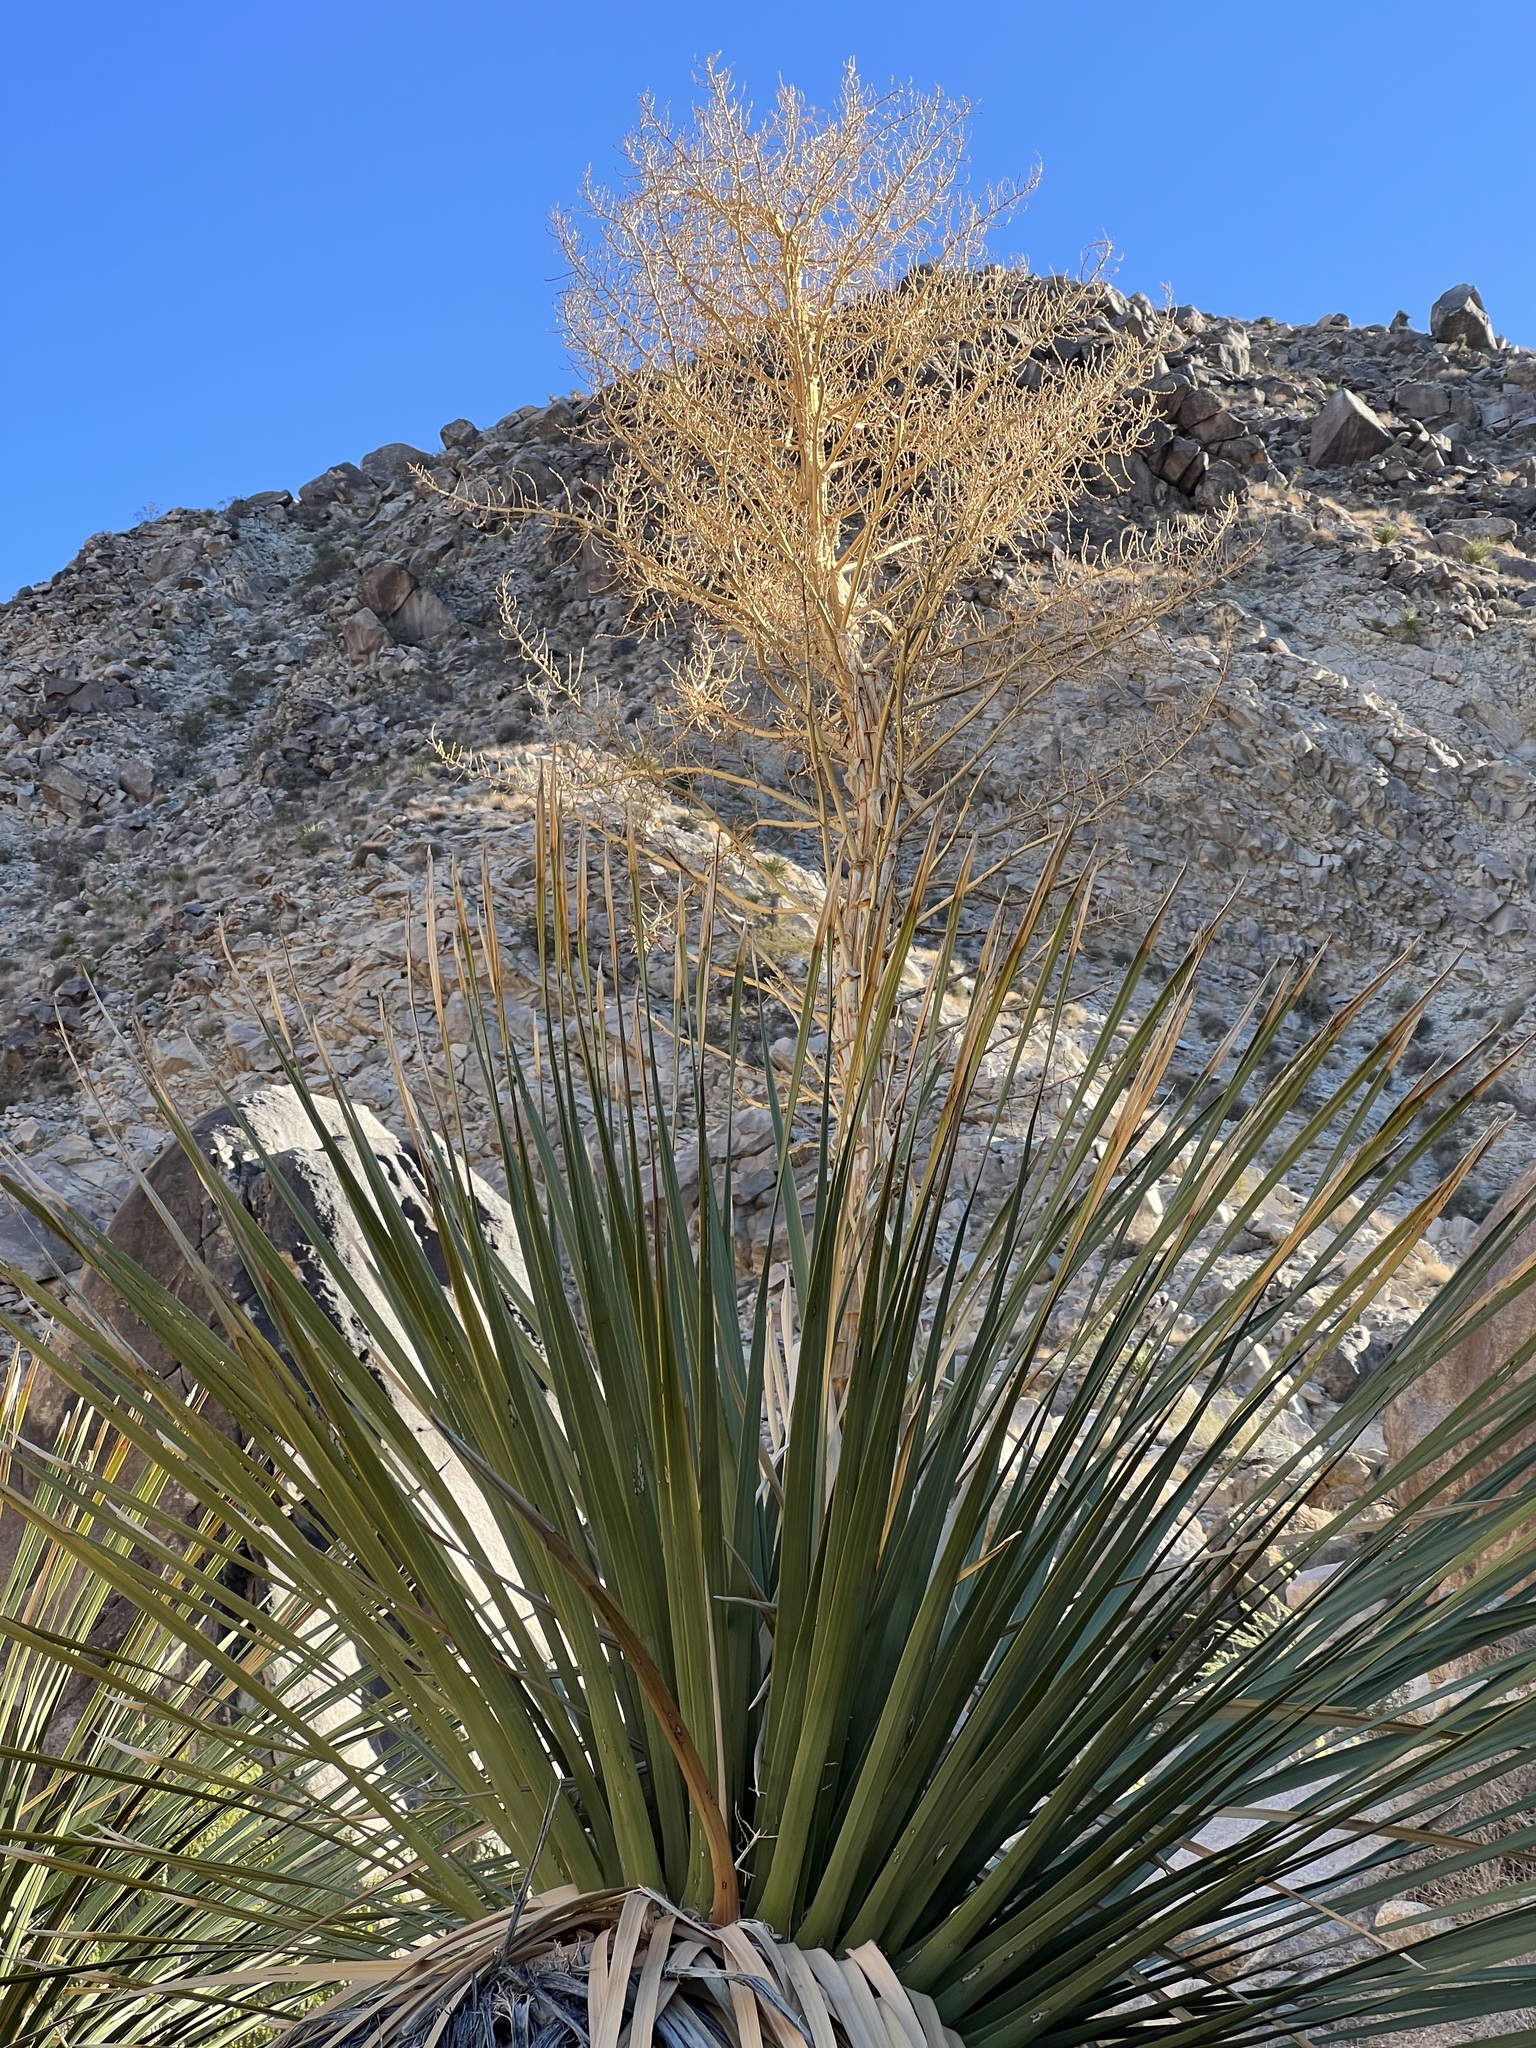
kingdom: Plantae
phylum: Tracheophyta
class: Liliopsida
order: Asparagales
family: Asparagaceae
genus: Nolina
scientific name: Nolina parryi
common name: Parry nolina
